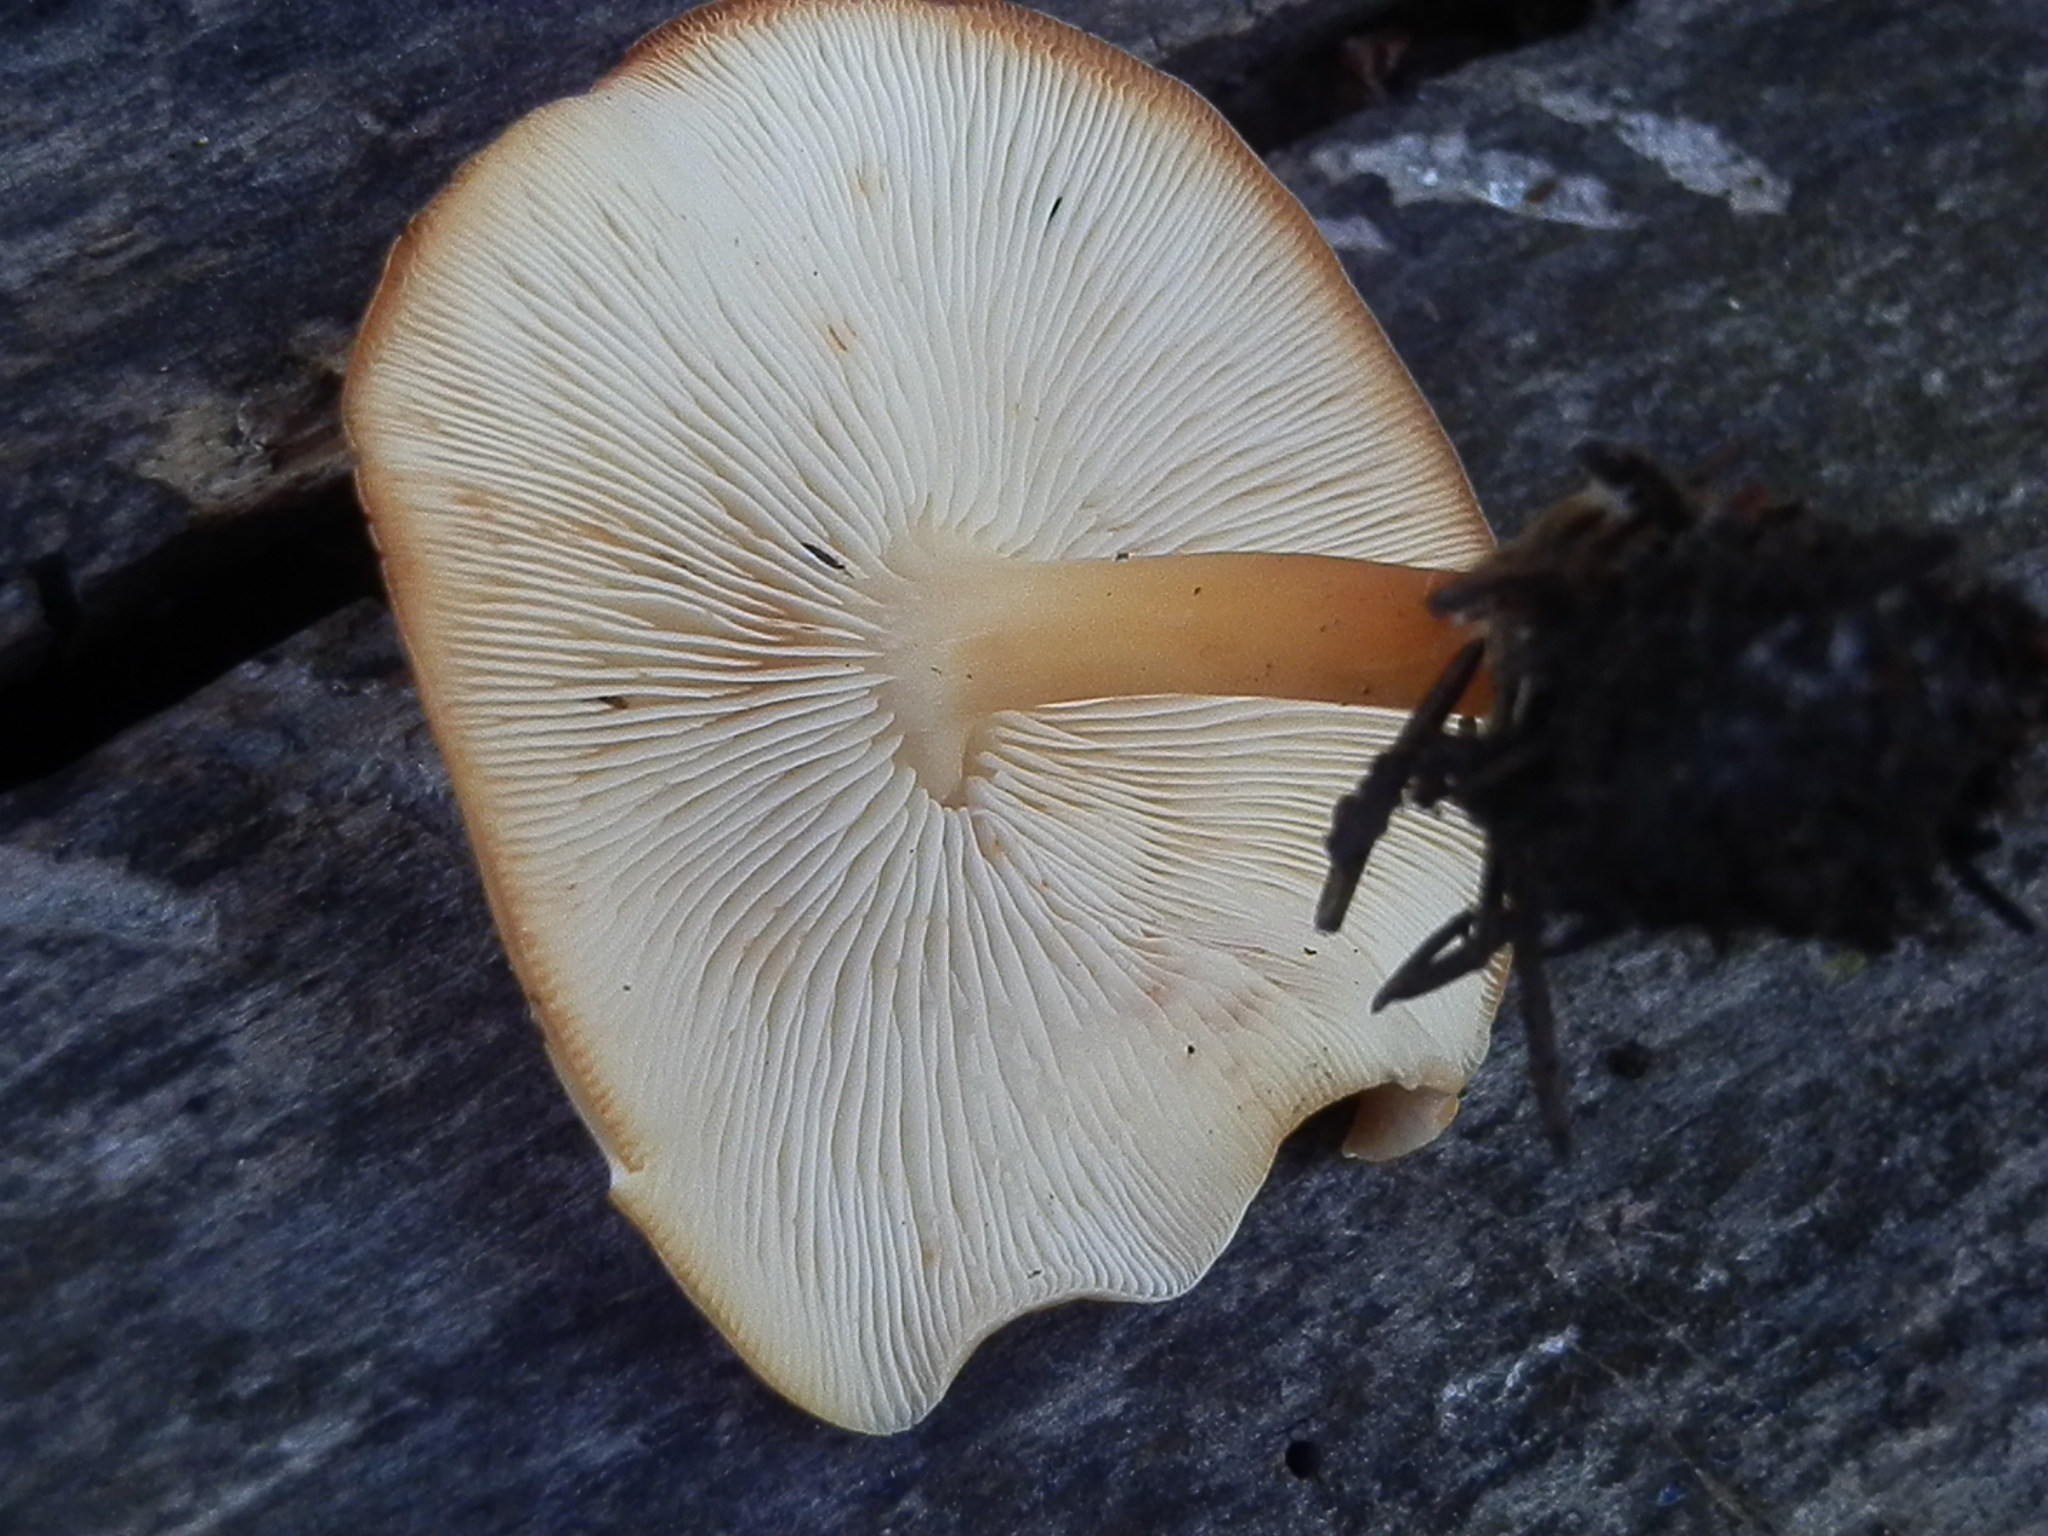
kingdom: Fungi
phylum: Basidiomycota
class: Agaricomycetes
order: Agaricales
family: Omphalotaceae
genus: Gymnopus
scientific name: Gymnopus dryophilus
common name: Penny top
